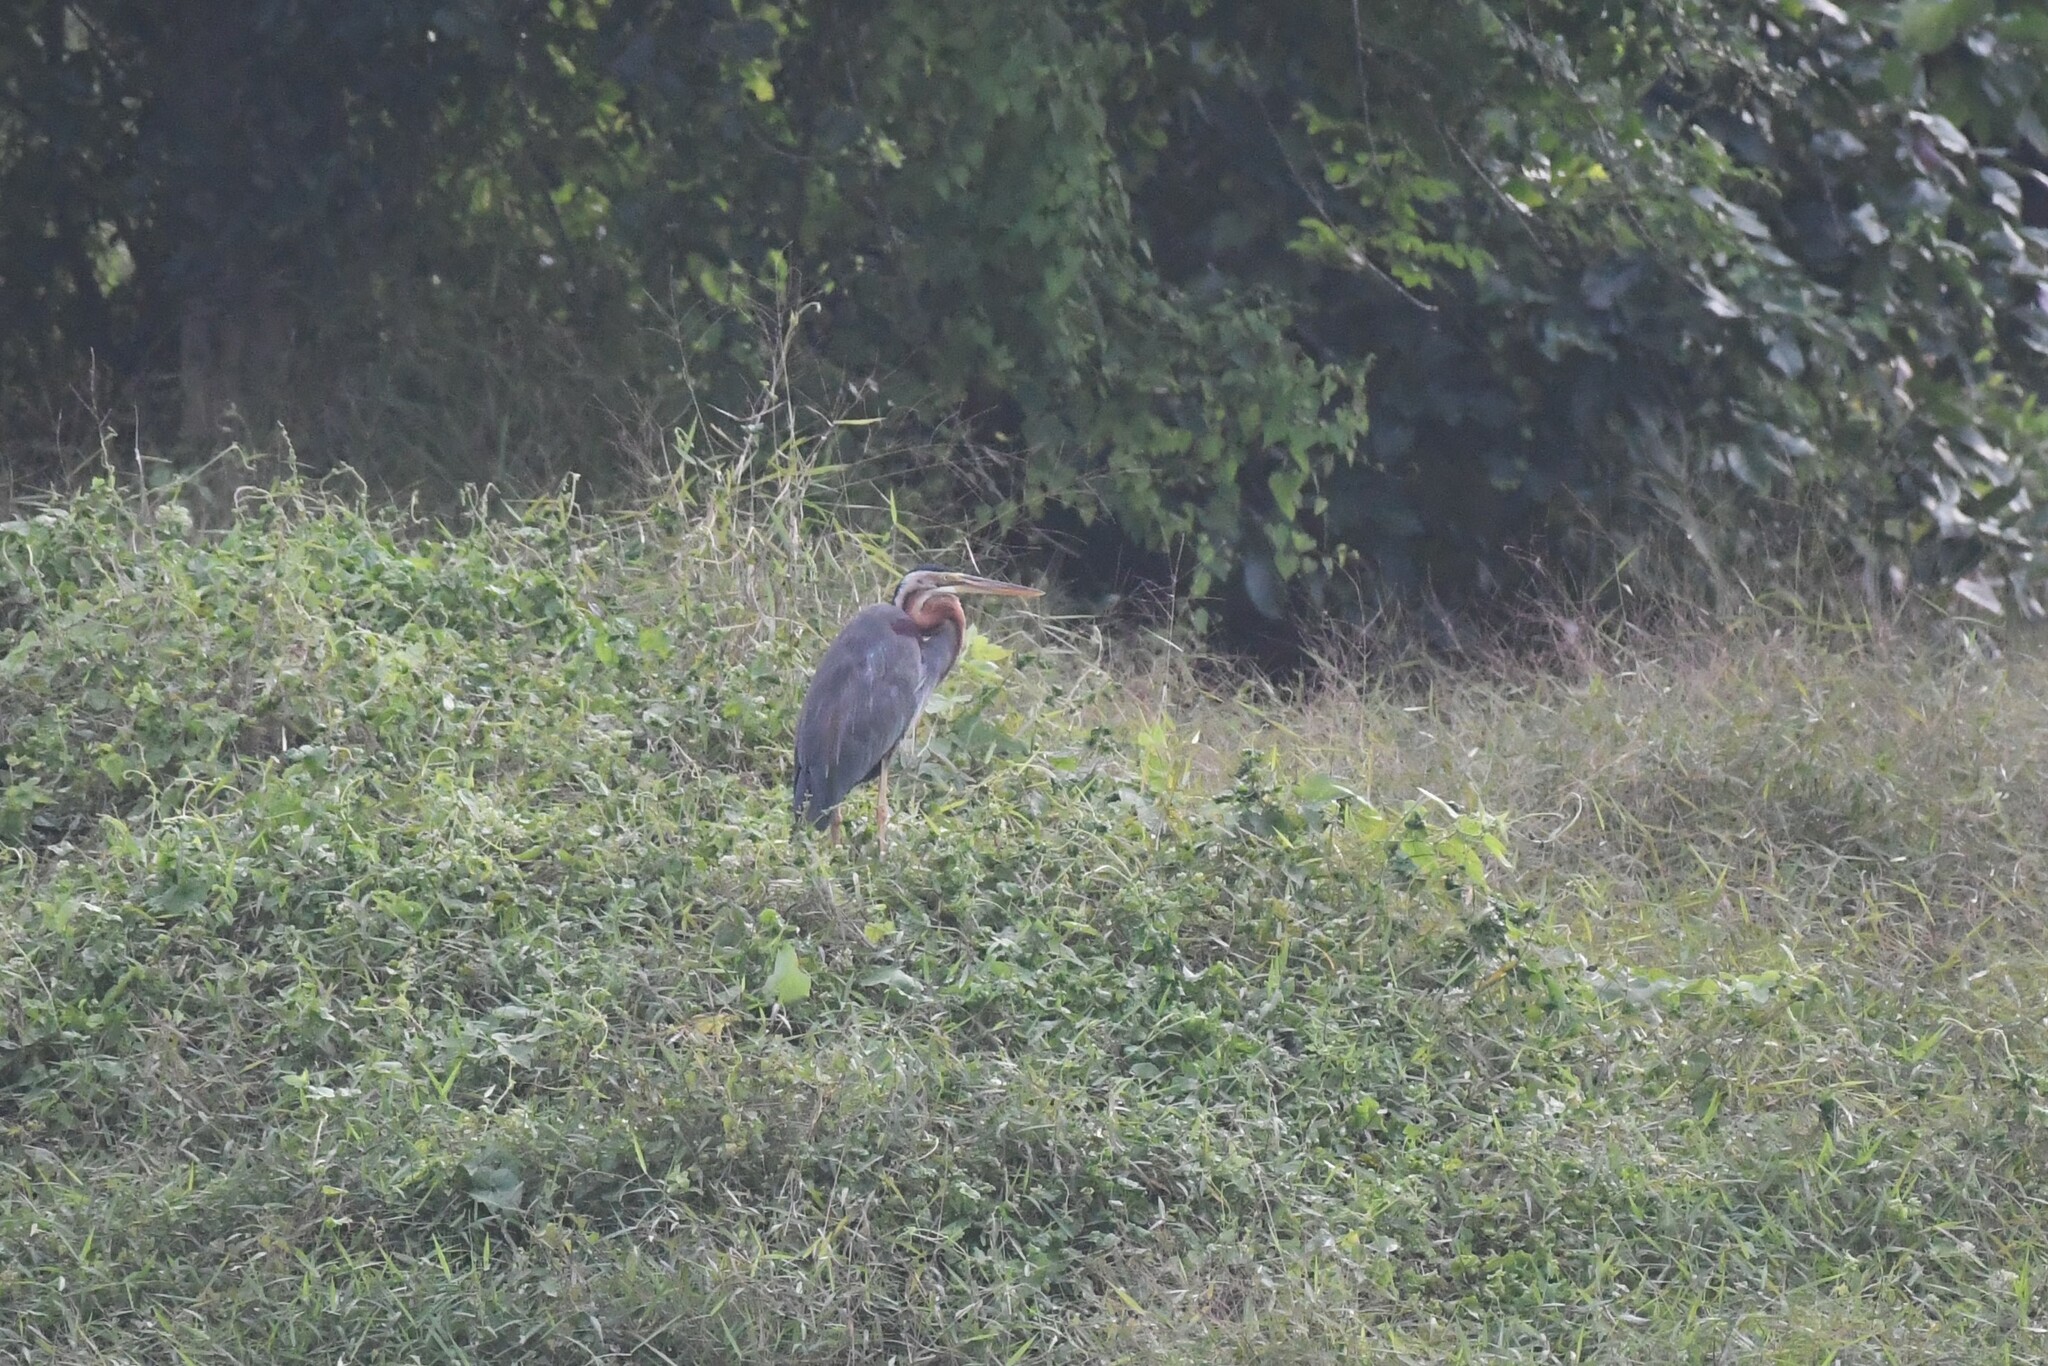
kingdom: Animalia
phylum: Chordata
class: Aves
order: Pelecaniformes
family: Ardeidae
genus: Ardea
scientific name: Ardea purpurea
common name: Purple heron
